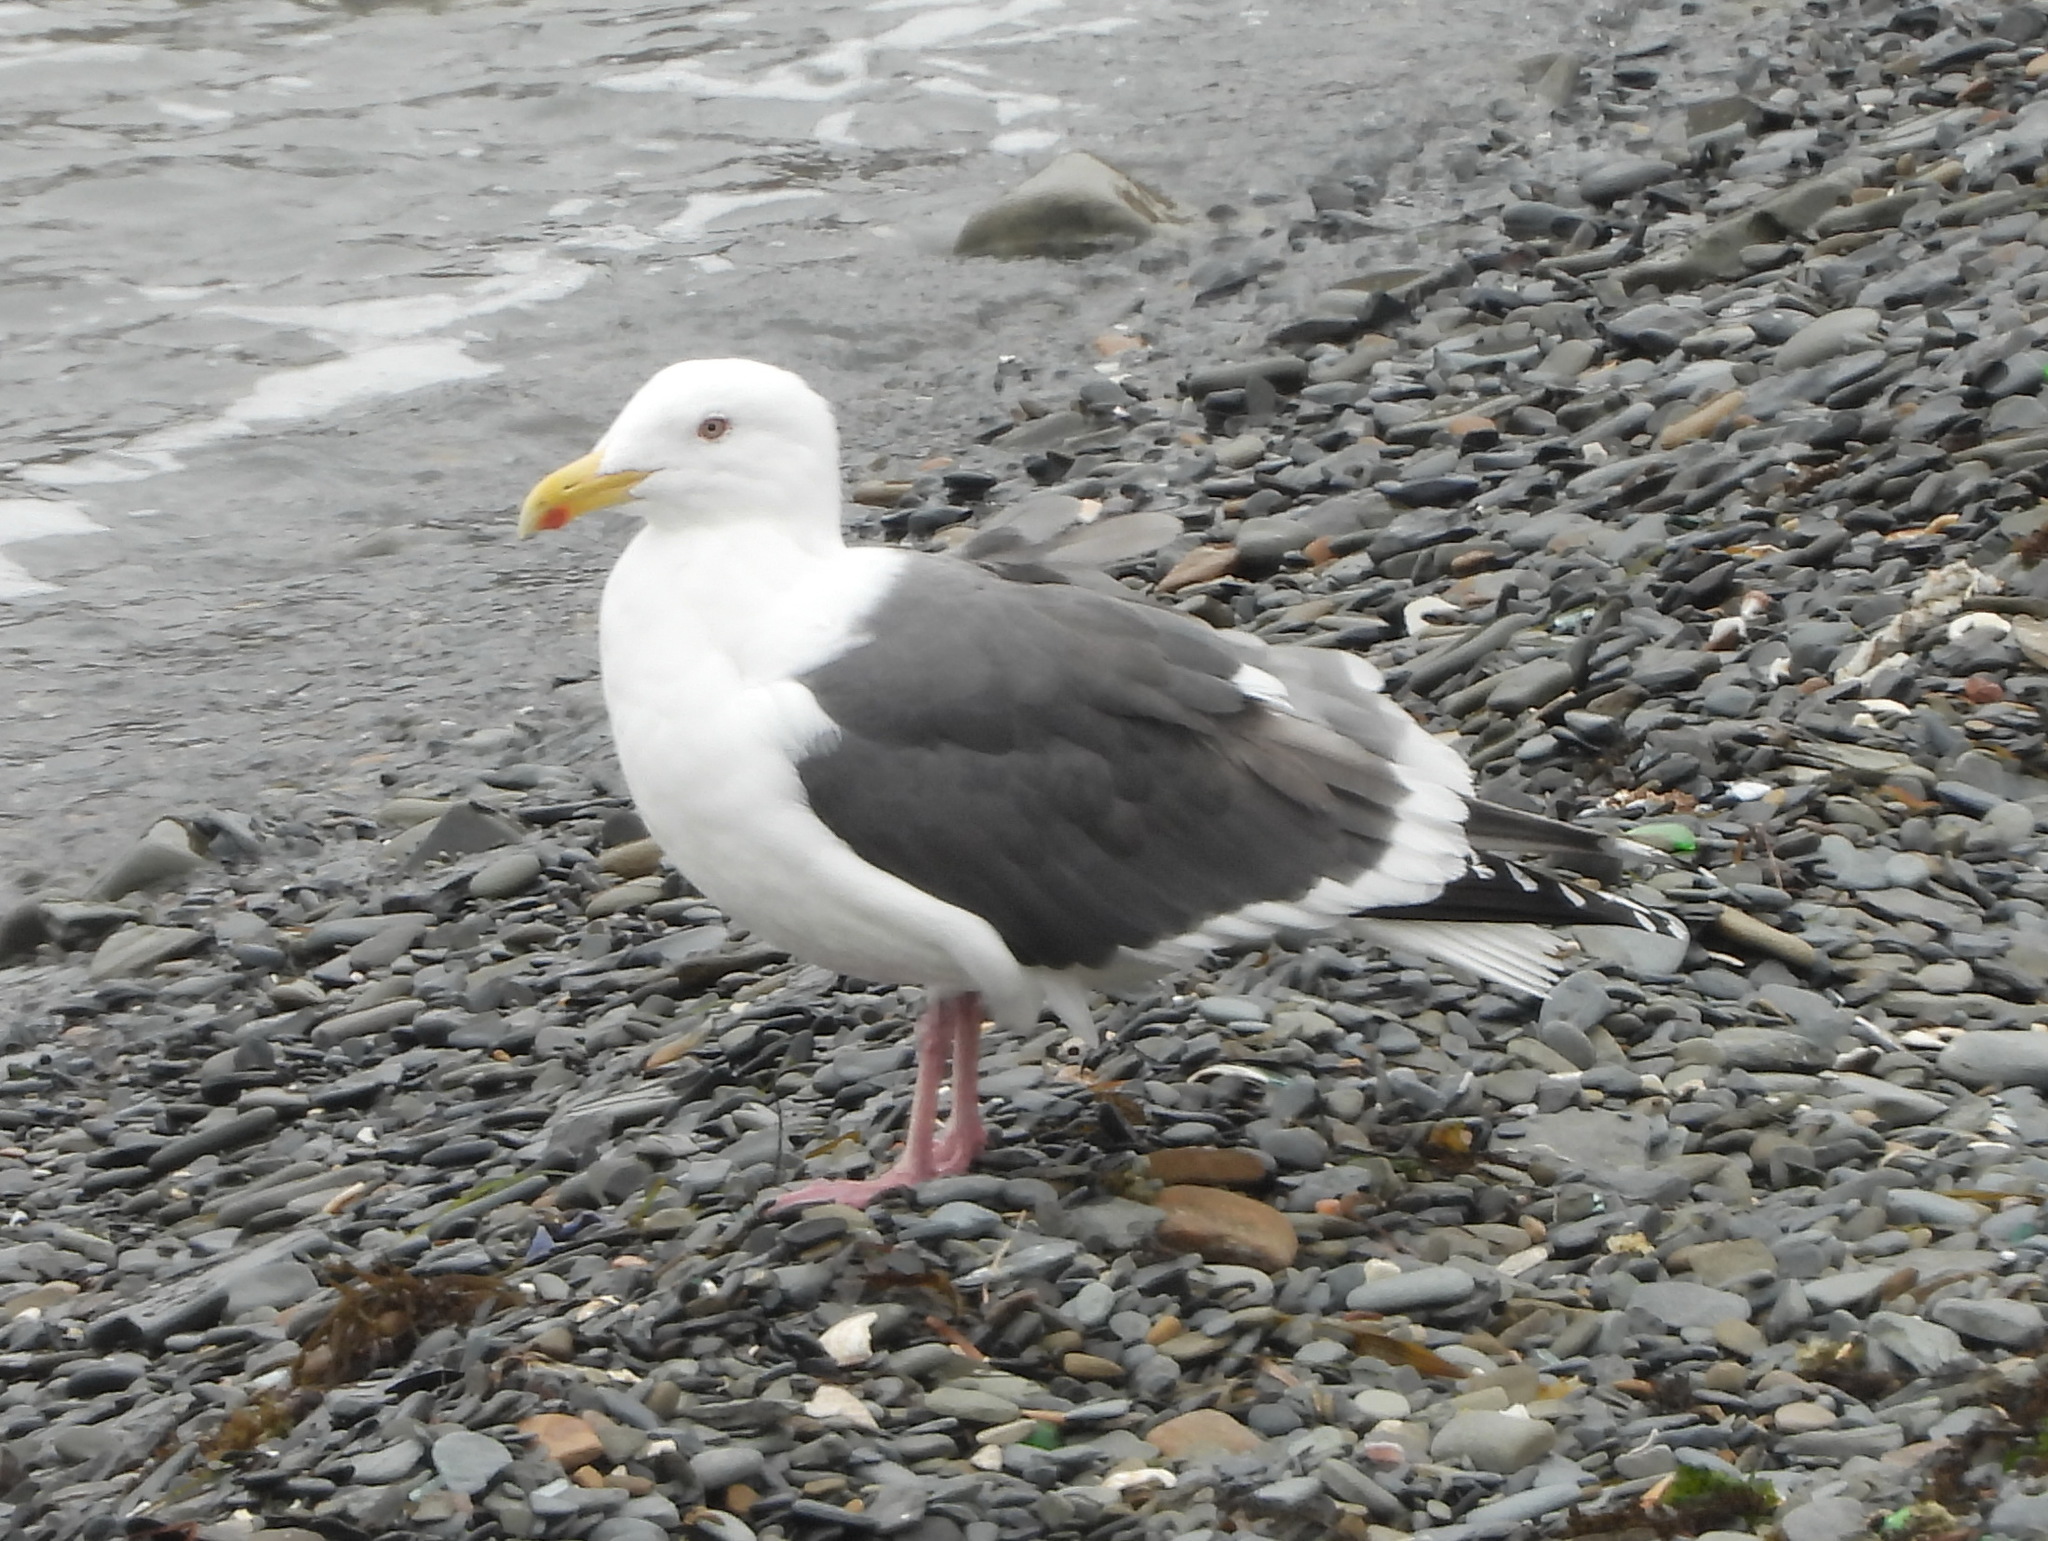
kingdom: Animalia
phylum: Chordata
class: Aves
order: Charadriiformes
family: Laridae
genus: Larus
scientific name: Larus schistisagus
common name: Slaty-backed gull
